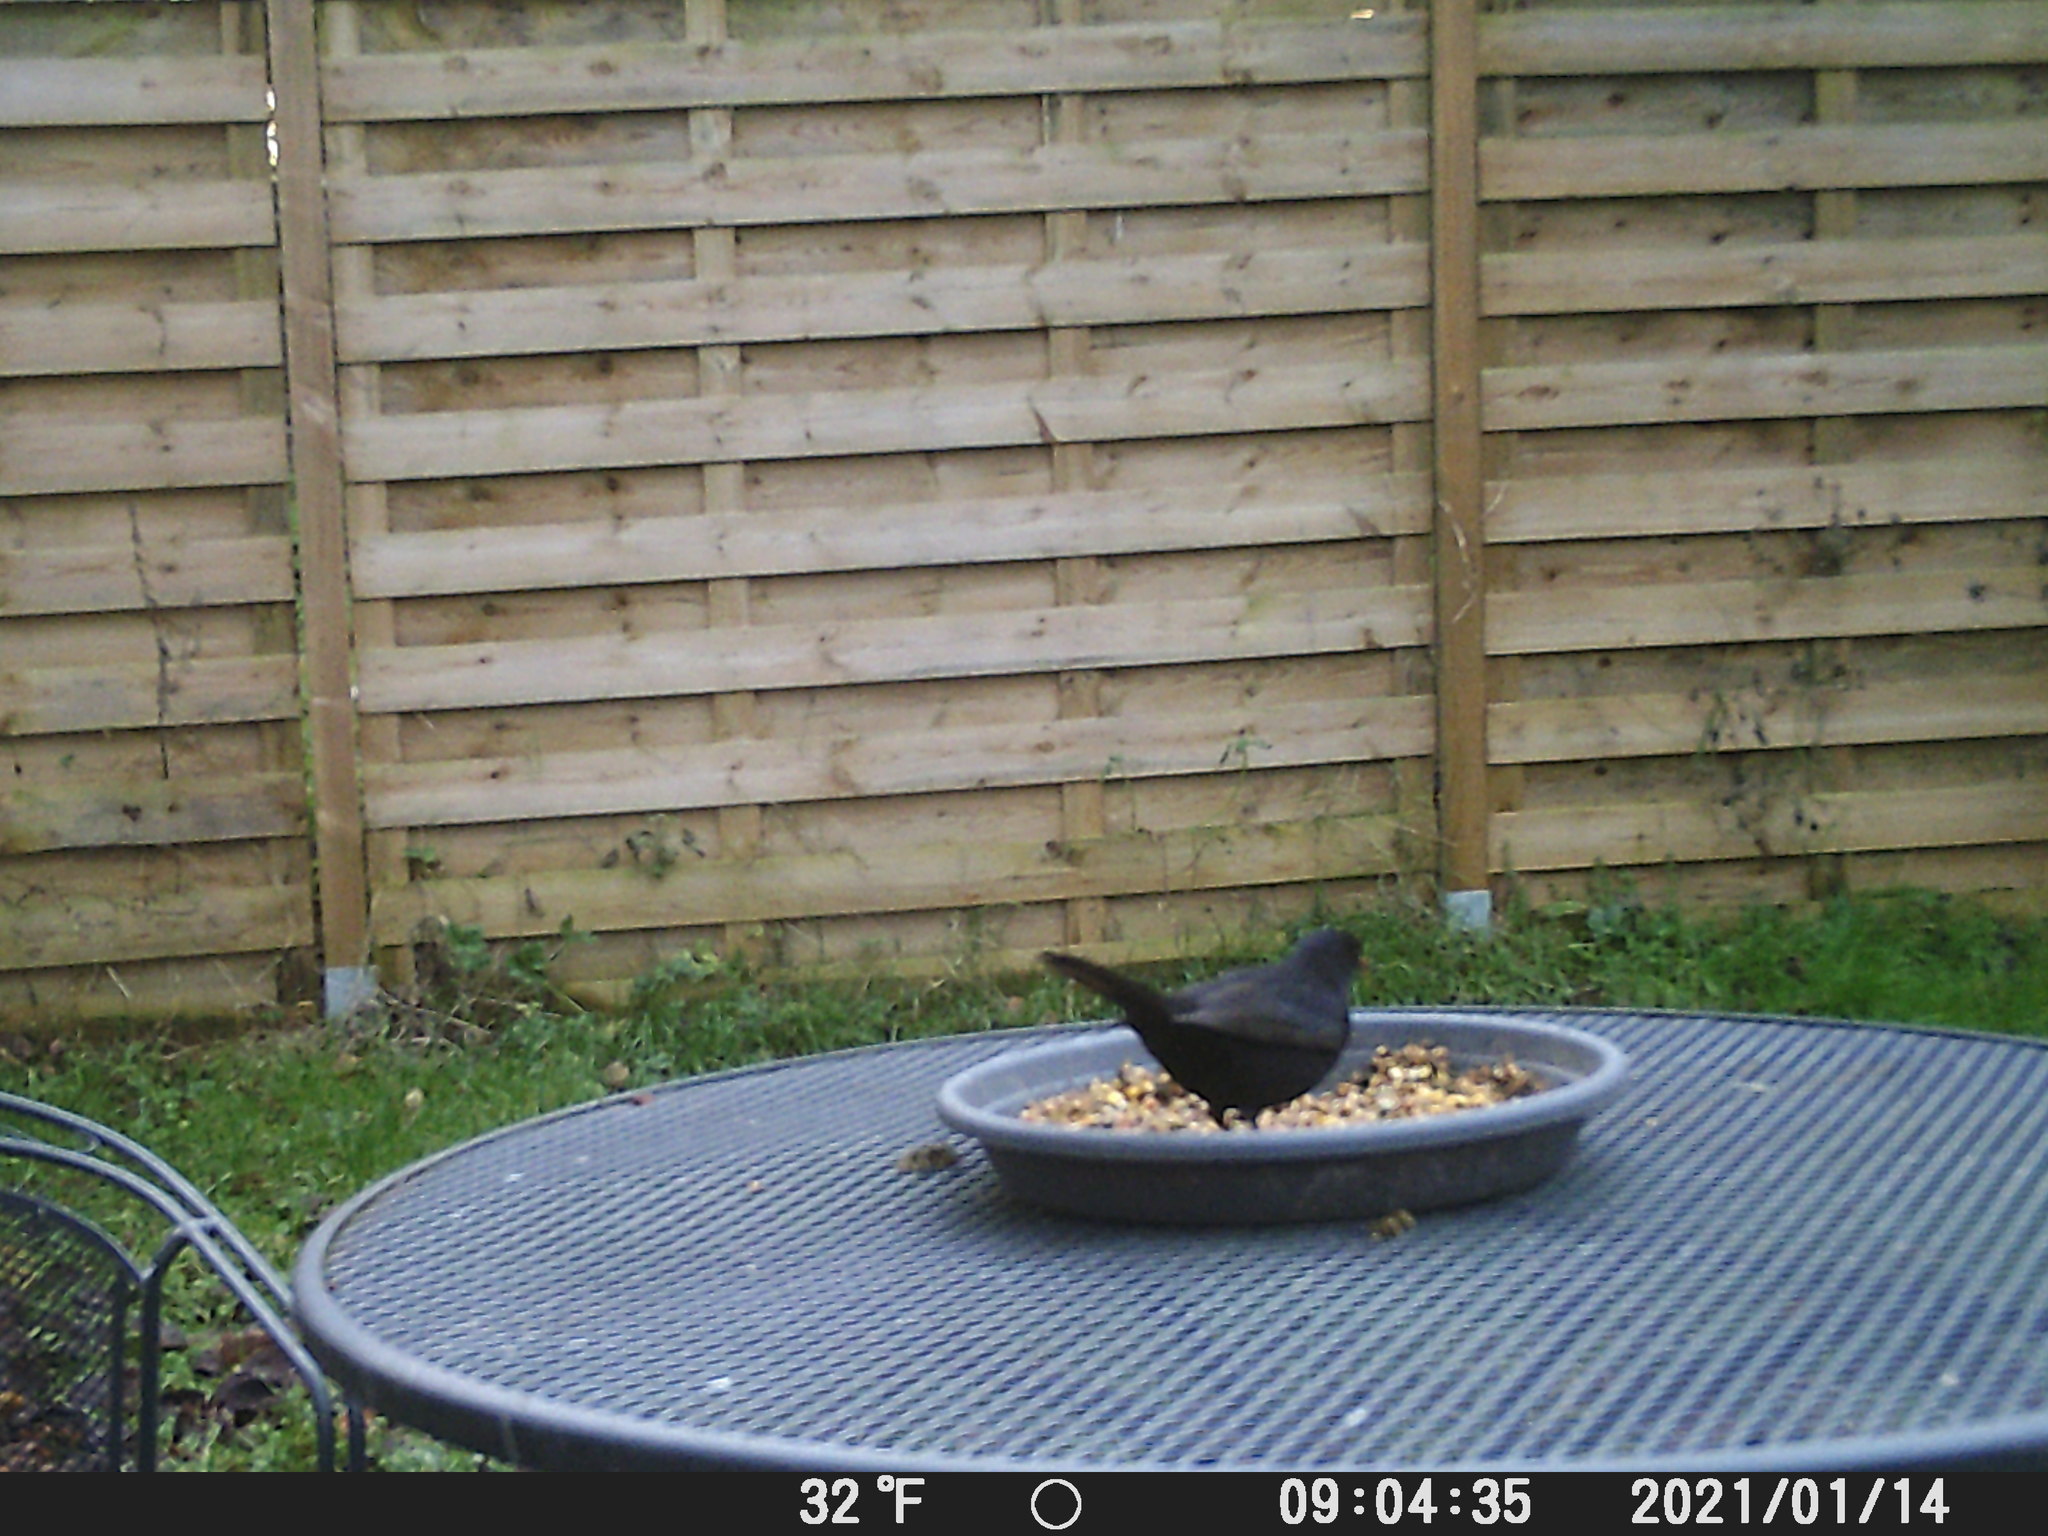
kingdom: Animalia
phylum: Chordata
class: Aves
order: Passeriformes
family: Turdidae
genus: Turdus
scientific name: Turdus merula
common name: Common blackbird
